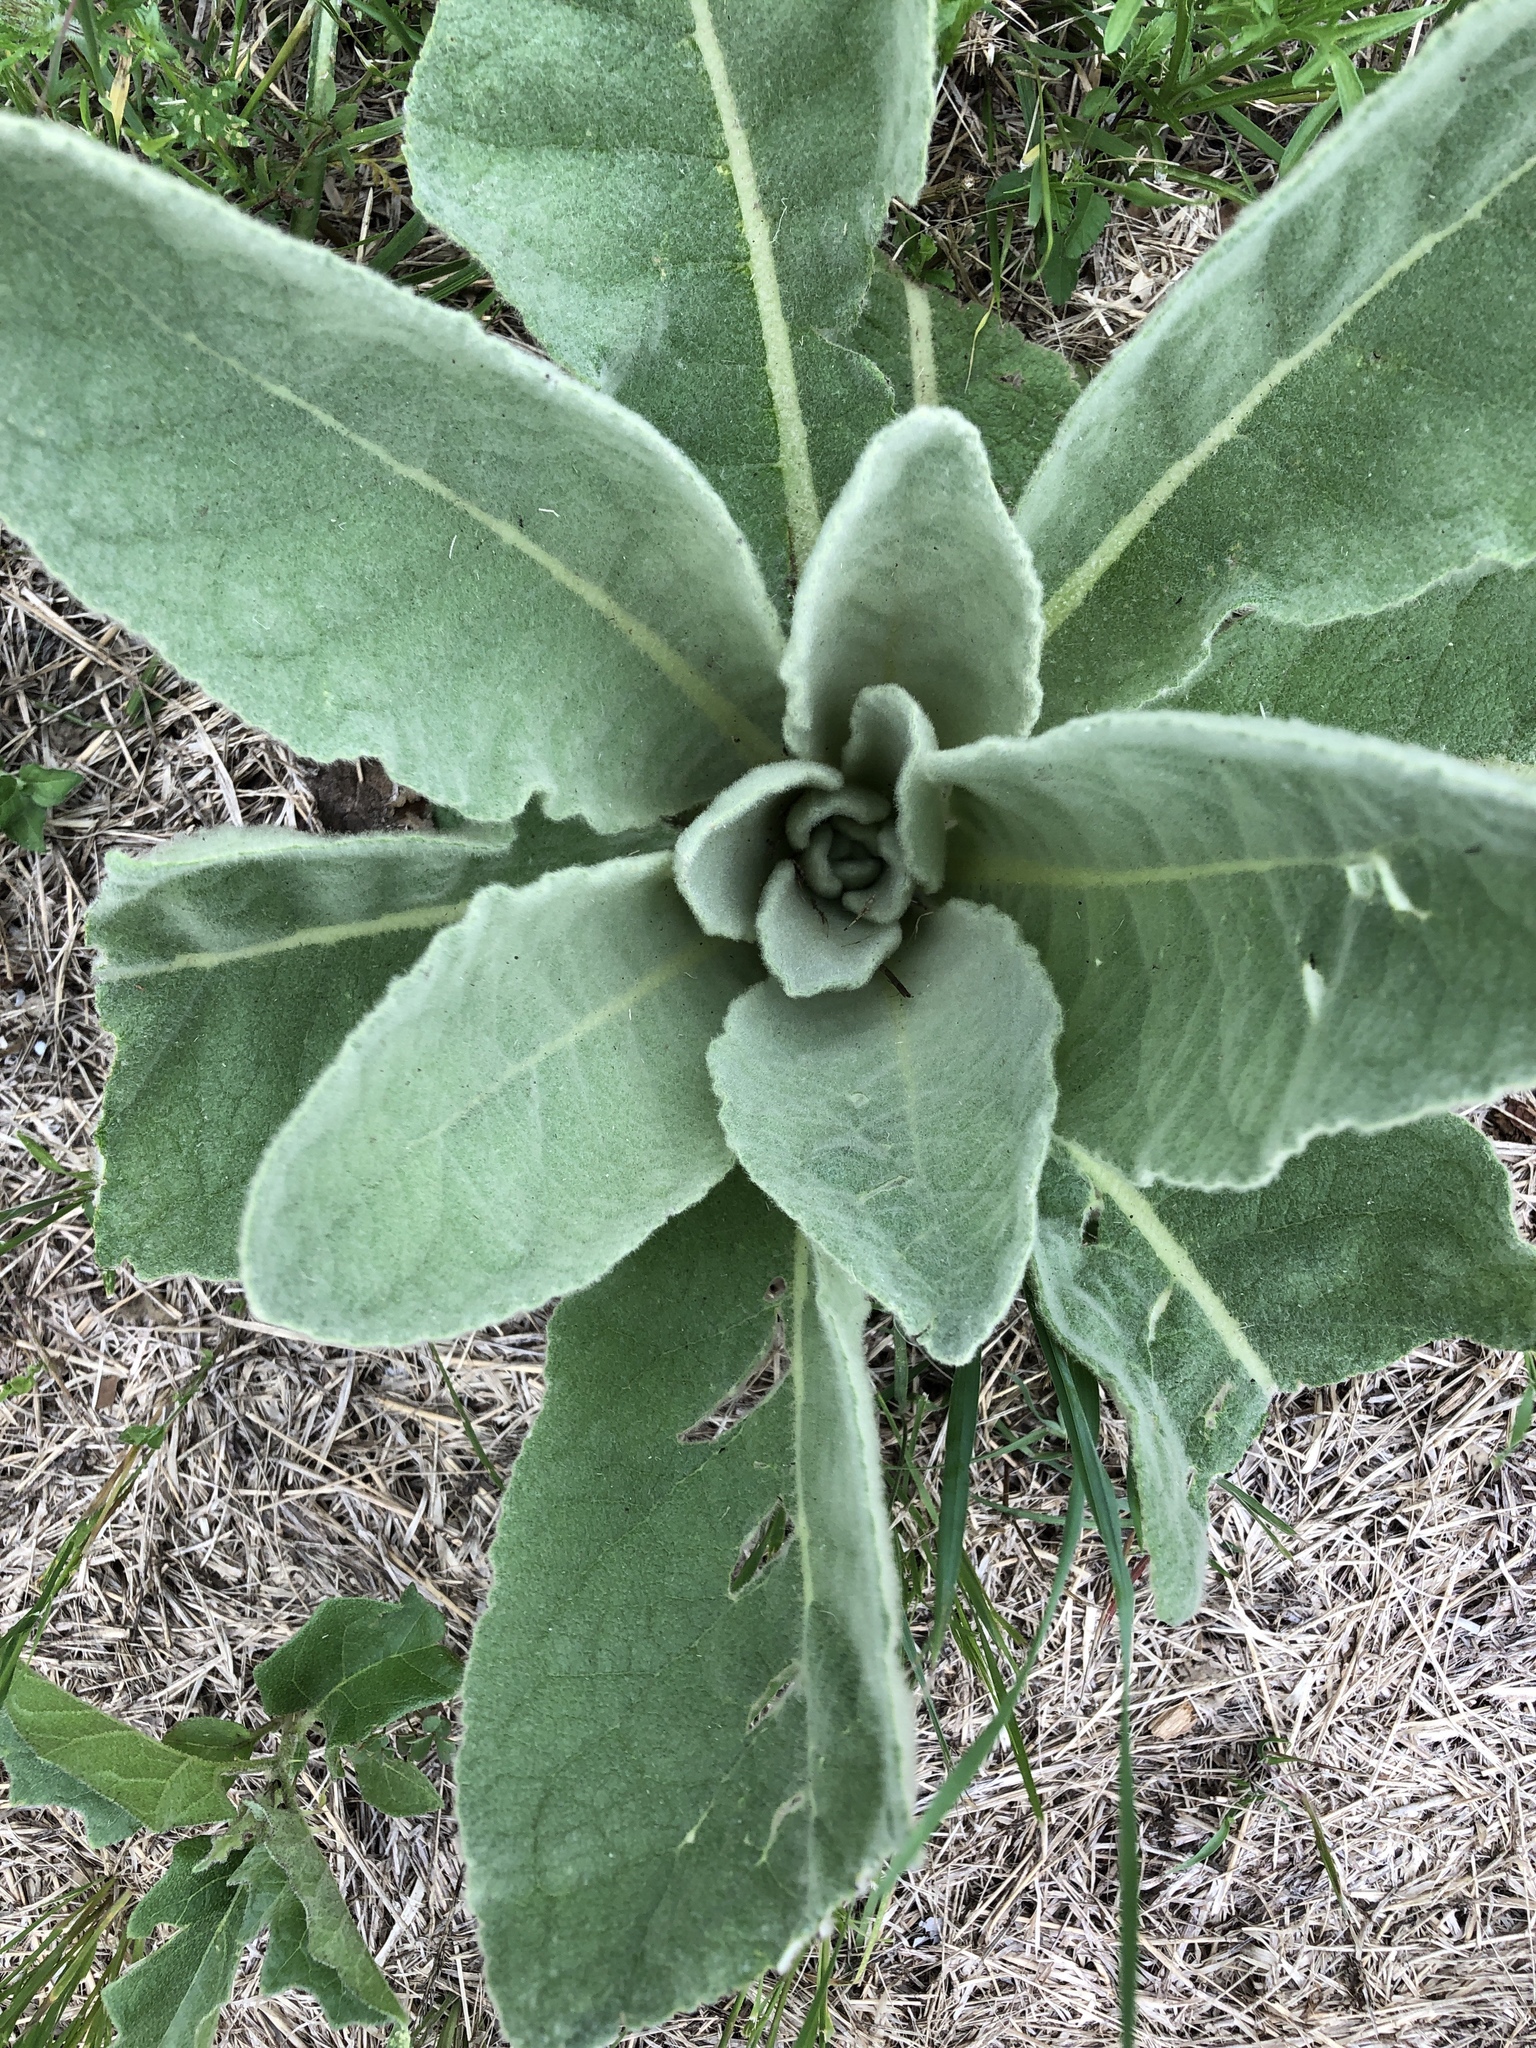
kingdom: Plantae
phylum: Tracheophyta
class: Magnoliopsida
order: Lamiales
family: Scrophulariaceae
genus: Verbascum
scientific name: Verbascum thapsus
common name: Common mullein
